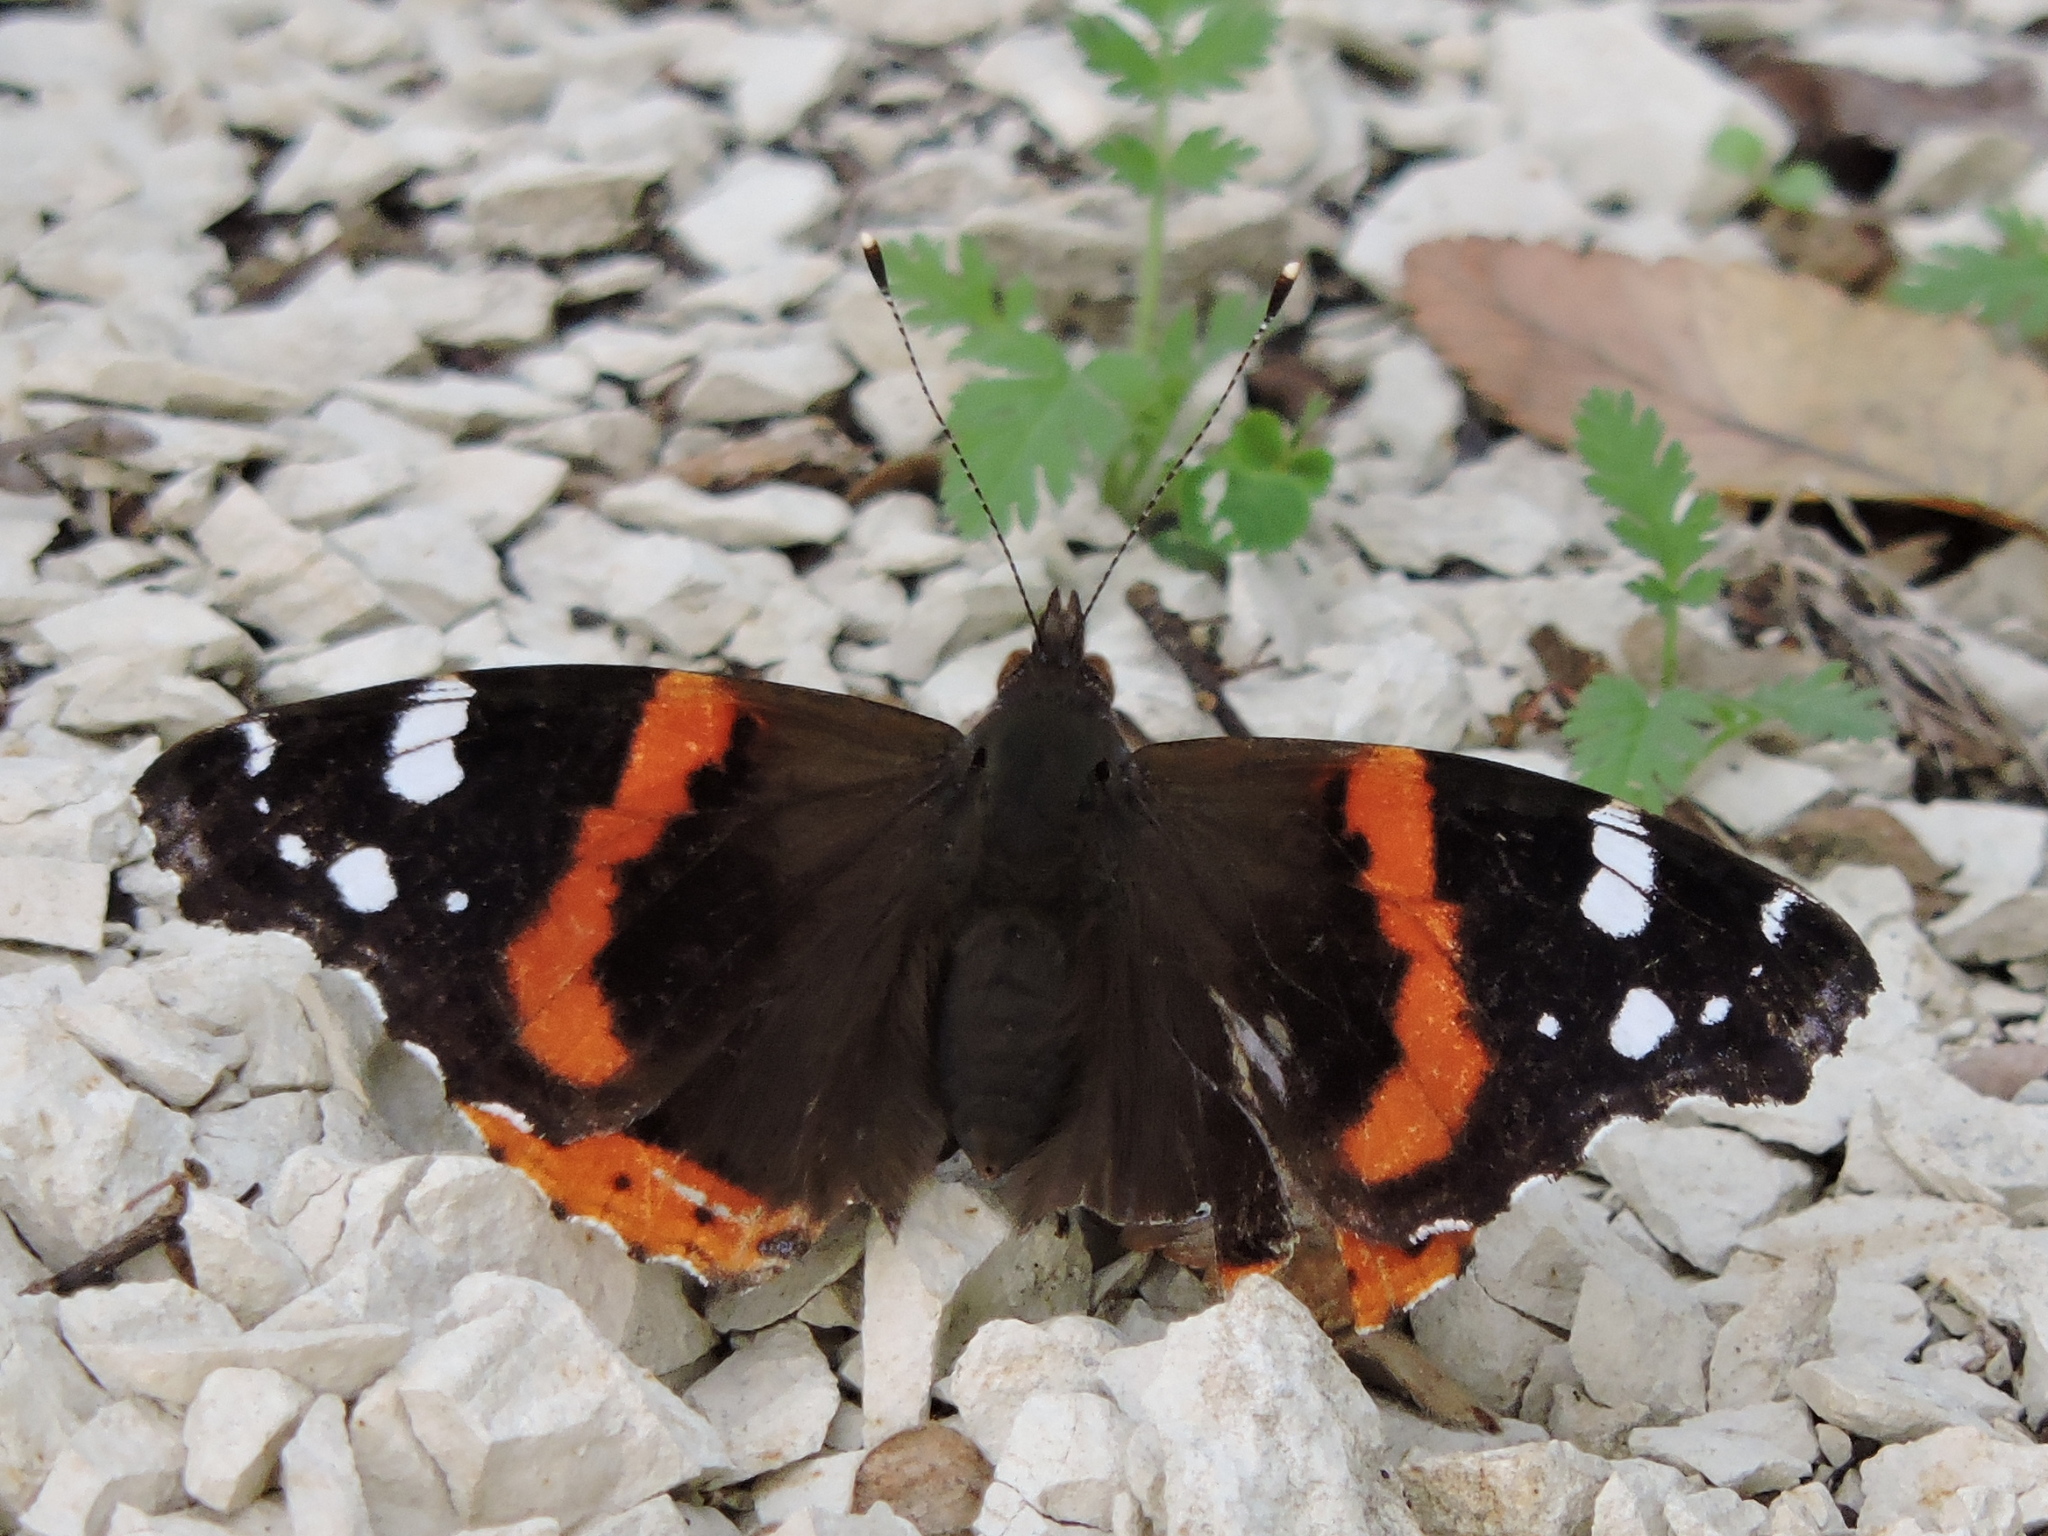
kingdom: Animalia
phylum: Arthropoda
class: Insecta
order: Lepidoptera
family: Nymphalidae
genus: Vanessa
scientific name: Vanessa atalanta
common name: Red admiral
